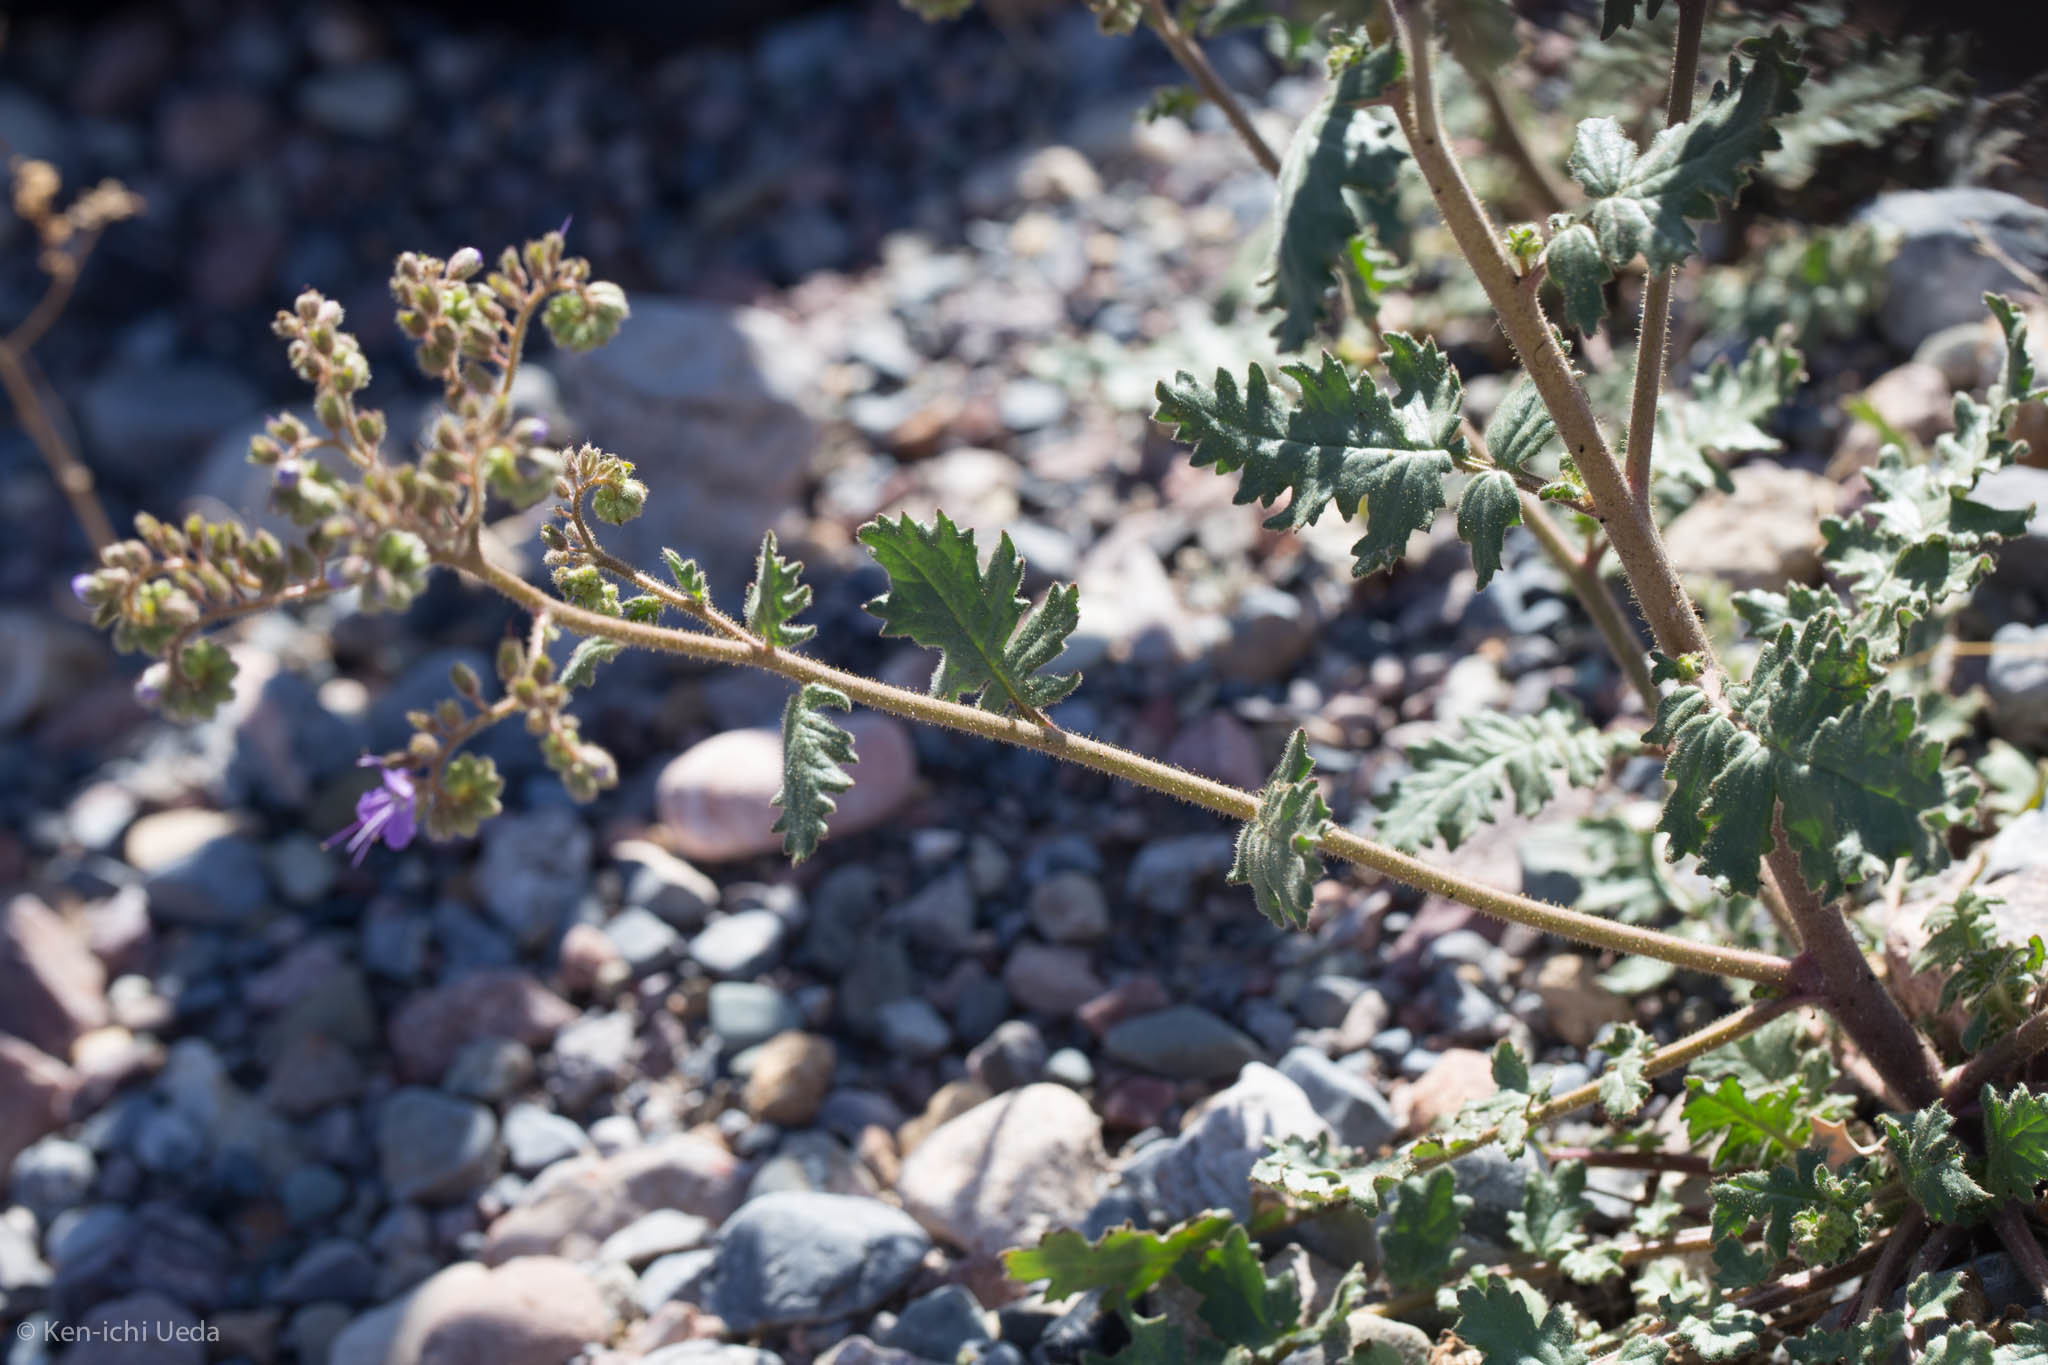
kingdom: Plantae
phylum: Tracheophyta
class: Magnoliopsida
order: Boraginales
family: Hydrophyllaceae
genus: Phacelia
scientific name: Phacelia crenulata
